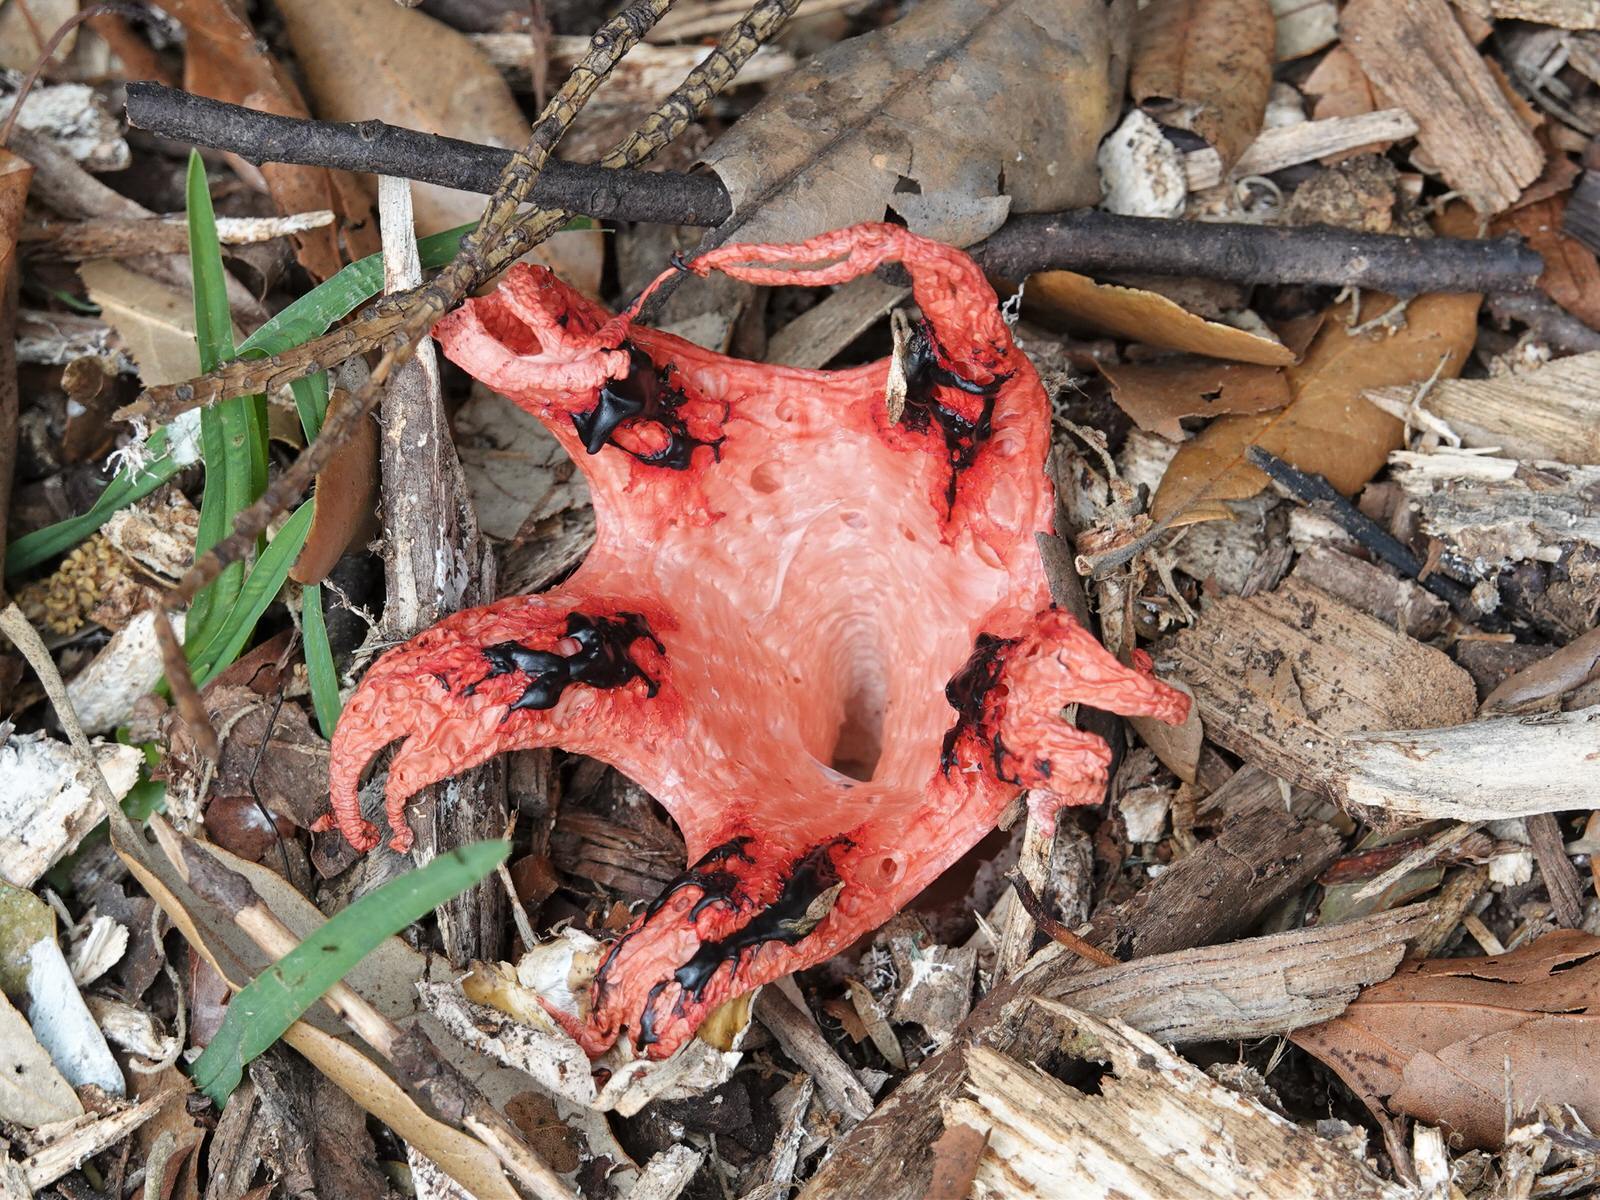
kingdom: Fungi
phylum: Basidiomycota
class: Agaricomycetes
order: Phallales
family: Phallaceae
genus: Clathrus
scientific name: Clathrus archeri
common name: Devil's fingers
